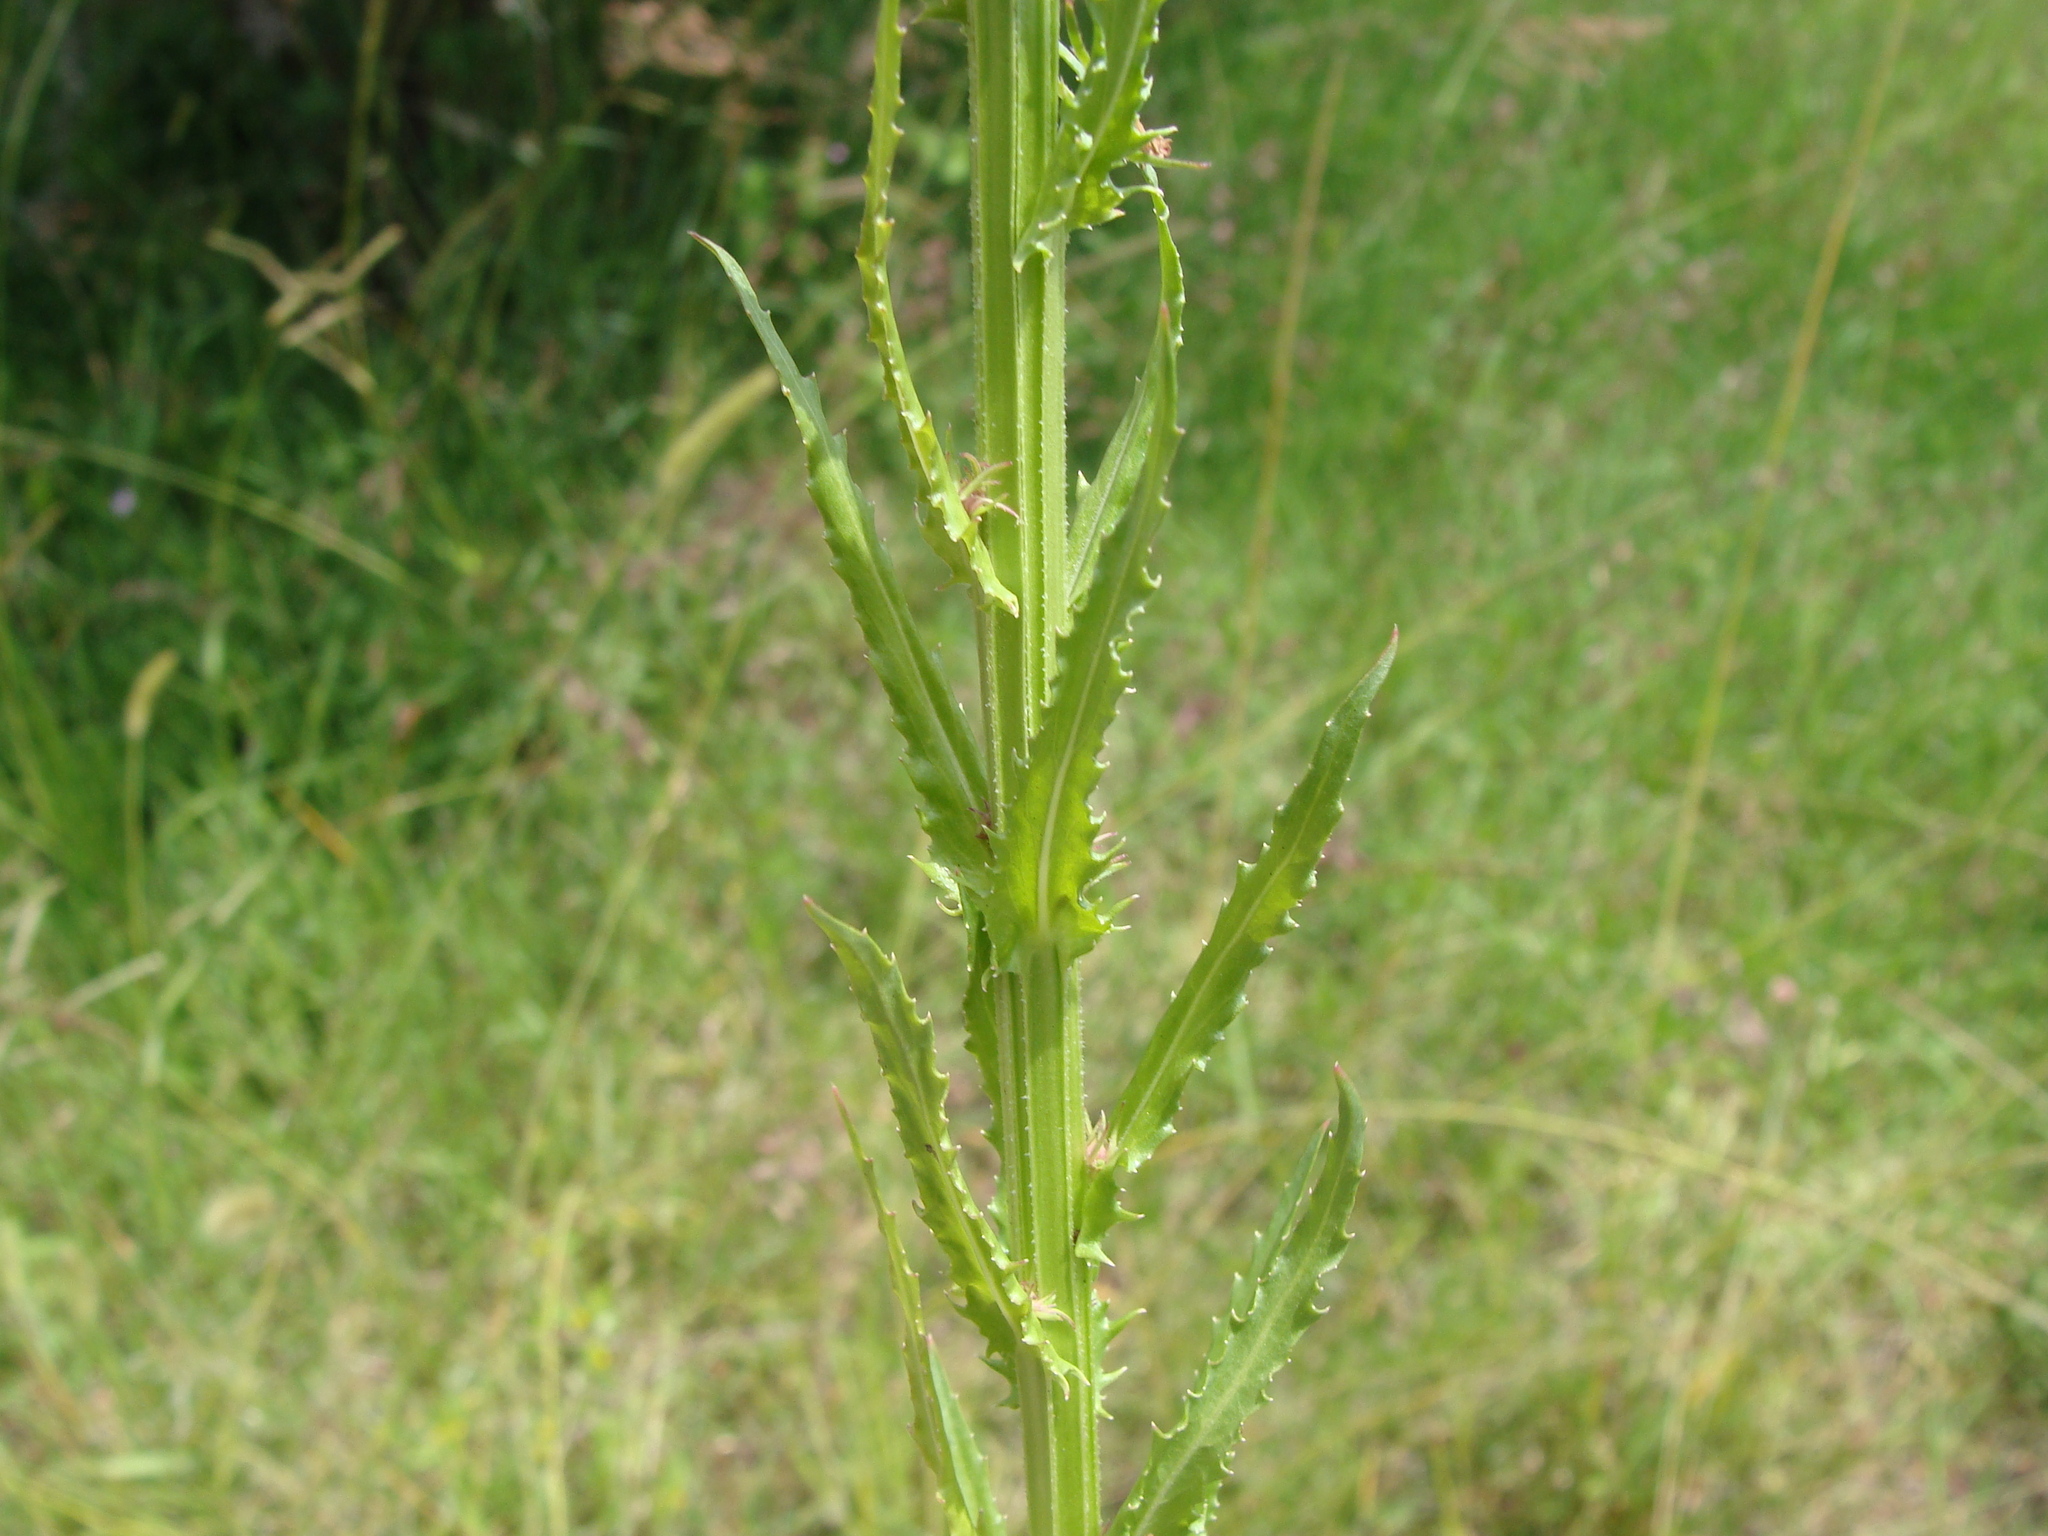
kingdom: Plantae
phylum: Tracheophyta
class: Magnoliopsida
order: Asterales
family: Campanulaceae
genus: Lobelia
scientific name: Lobelia fenestralis
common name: Leafy lobelia
